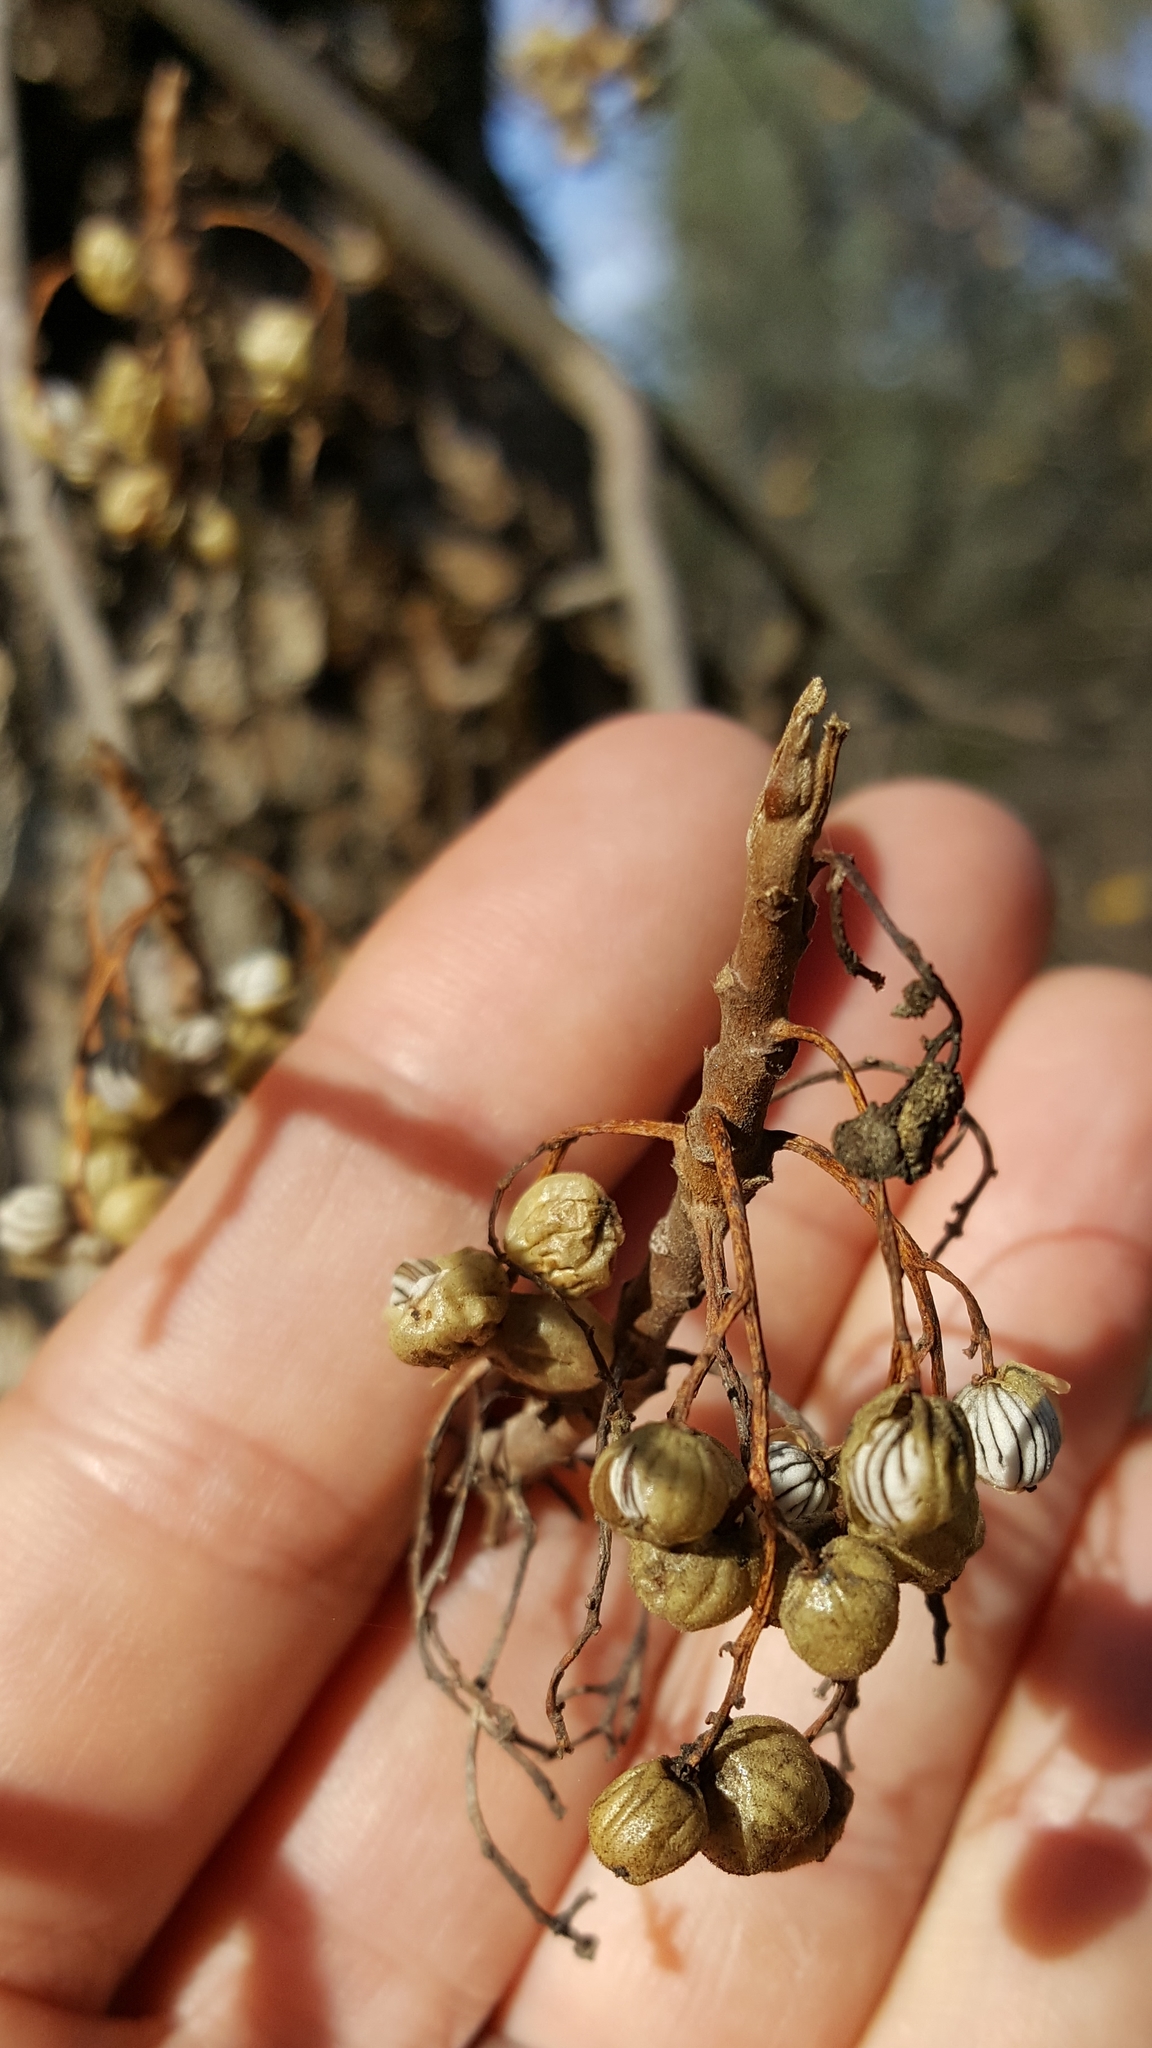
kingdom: Plantae
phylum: Tracheophyta
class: Magnoliopsida
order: Fagales
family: Fagaceae
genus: Quercus
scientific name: Quercus douglasii
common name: Blue oak
